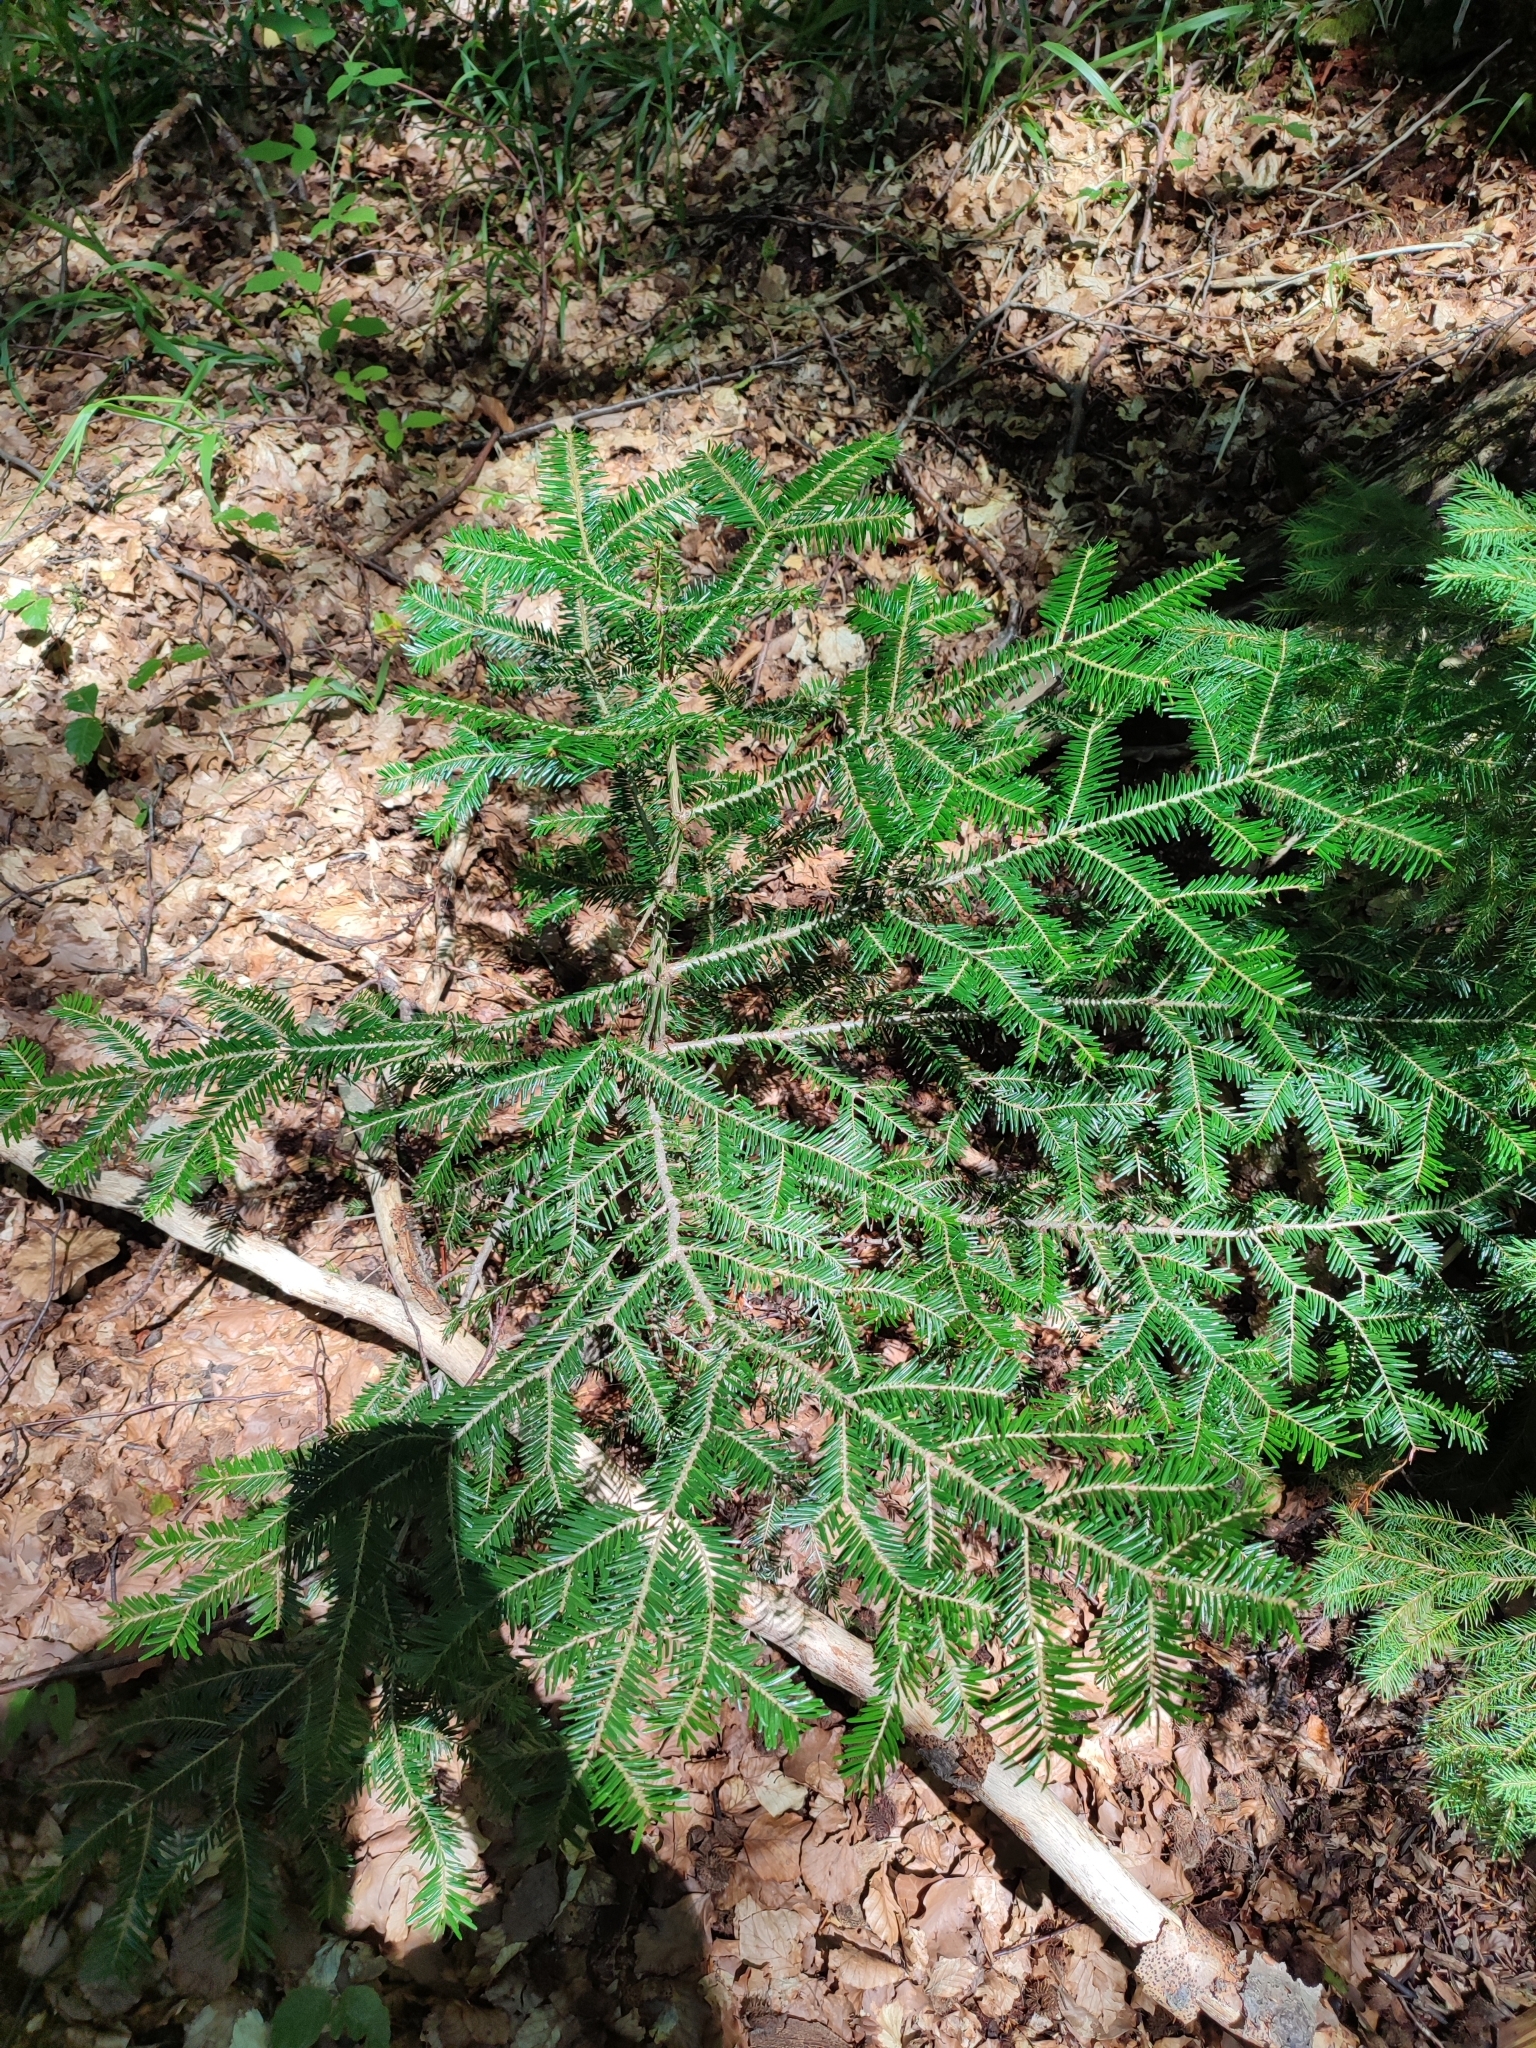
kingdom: Plantae
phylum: Tracheophyta
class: Pinopsida
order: Pinales
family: Pinaceae
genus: Abies
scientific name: Abies alba
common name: Silver fir
